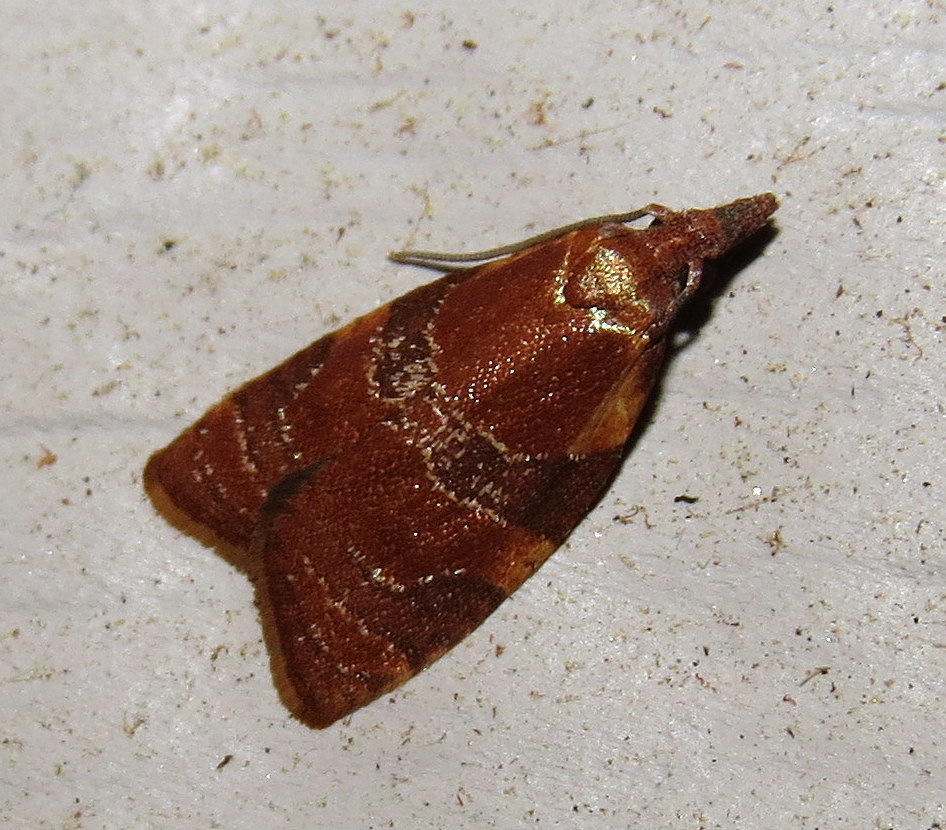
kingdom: Animalia
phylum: Arthropoda
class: Insecta
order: Lepidoptera
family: Tortricidae
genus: Cenopis
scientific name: Cenopis diluticostana
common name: Spring dead-leaf roller moth
